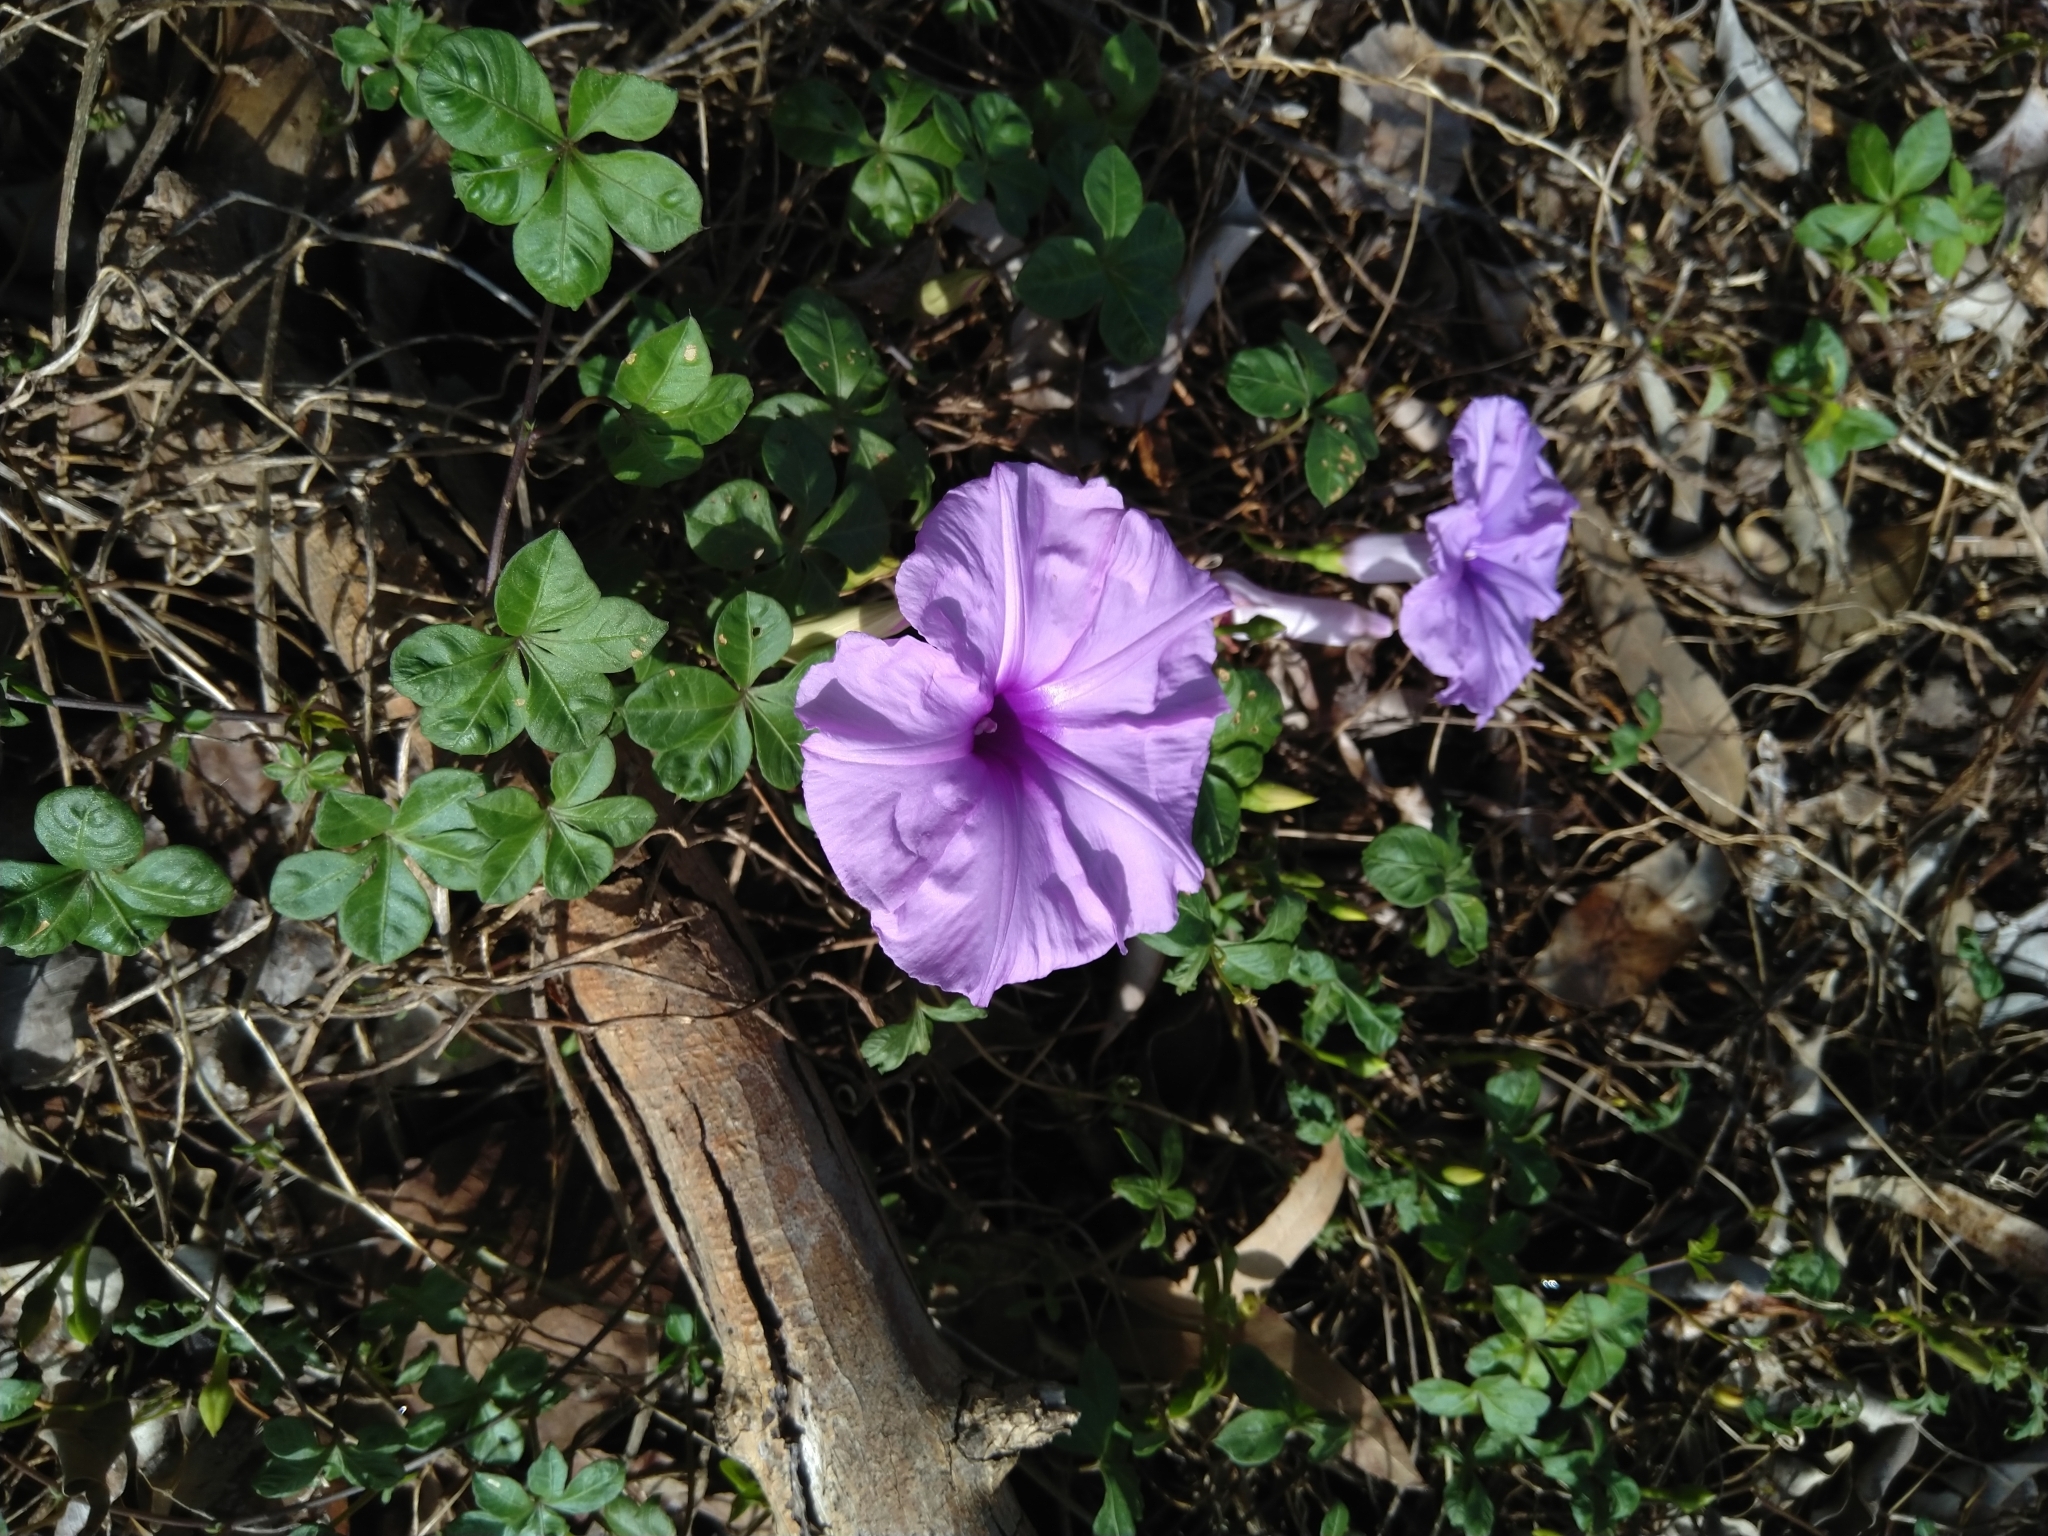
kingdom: Plantae
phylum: Tracheophyta
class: Magnoliopsida
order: Solanales
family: Convolvulaceae
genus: Ipomoea
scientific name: Ipomoea cairica
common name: Mile a minute vine
